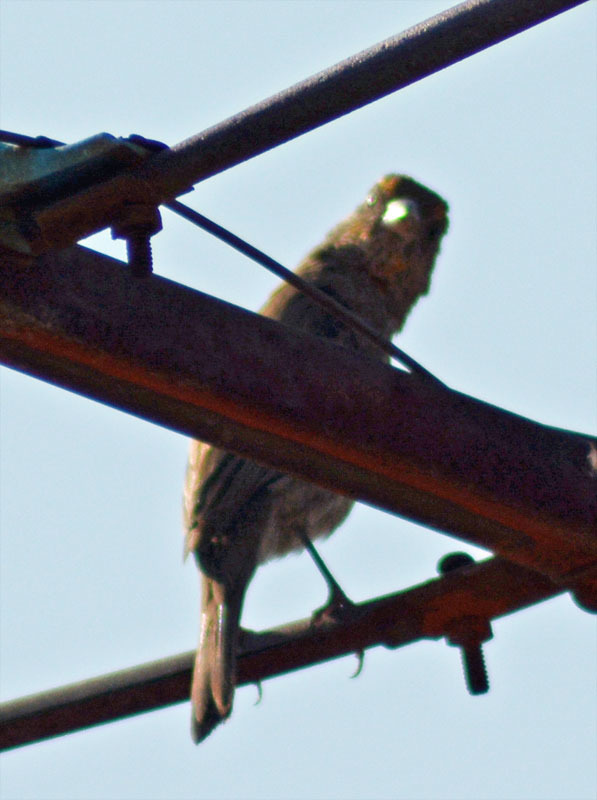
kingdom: Animalia
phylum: Chordata
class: Aves
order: Passeriformes
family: Fringillidae
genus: Haemorhous
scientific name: Haemorhous mexicanus
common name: House finch
